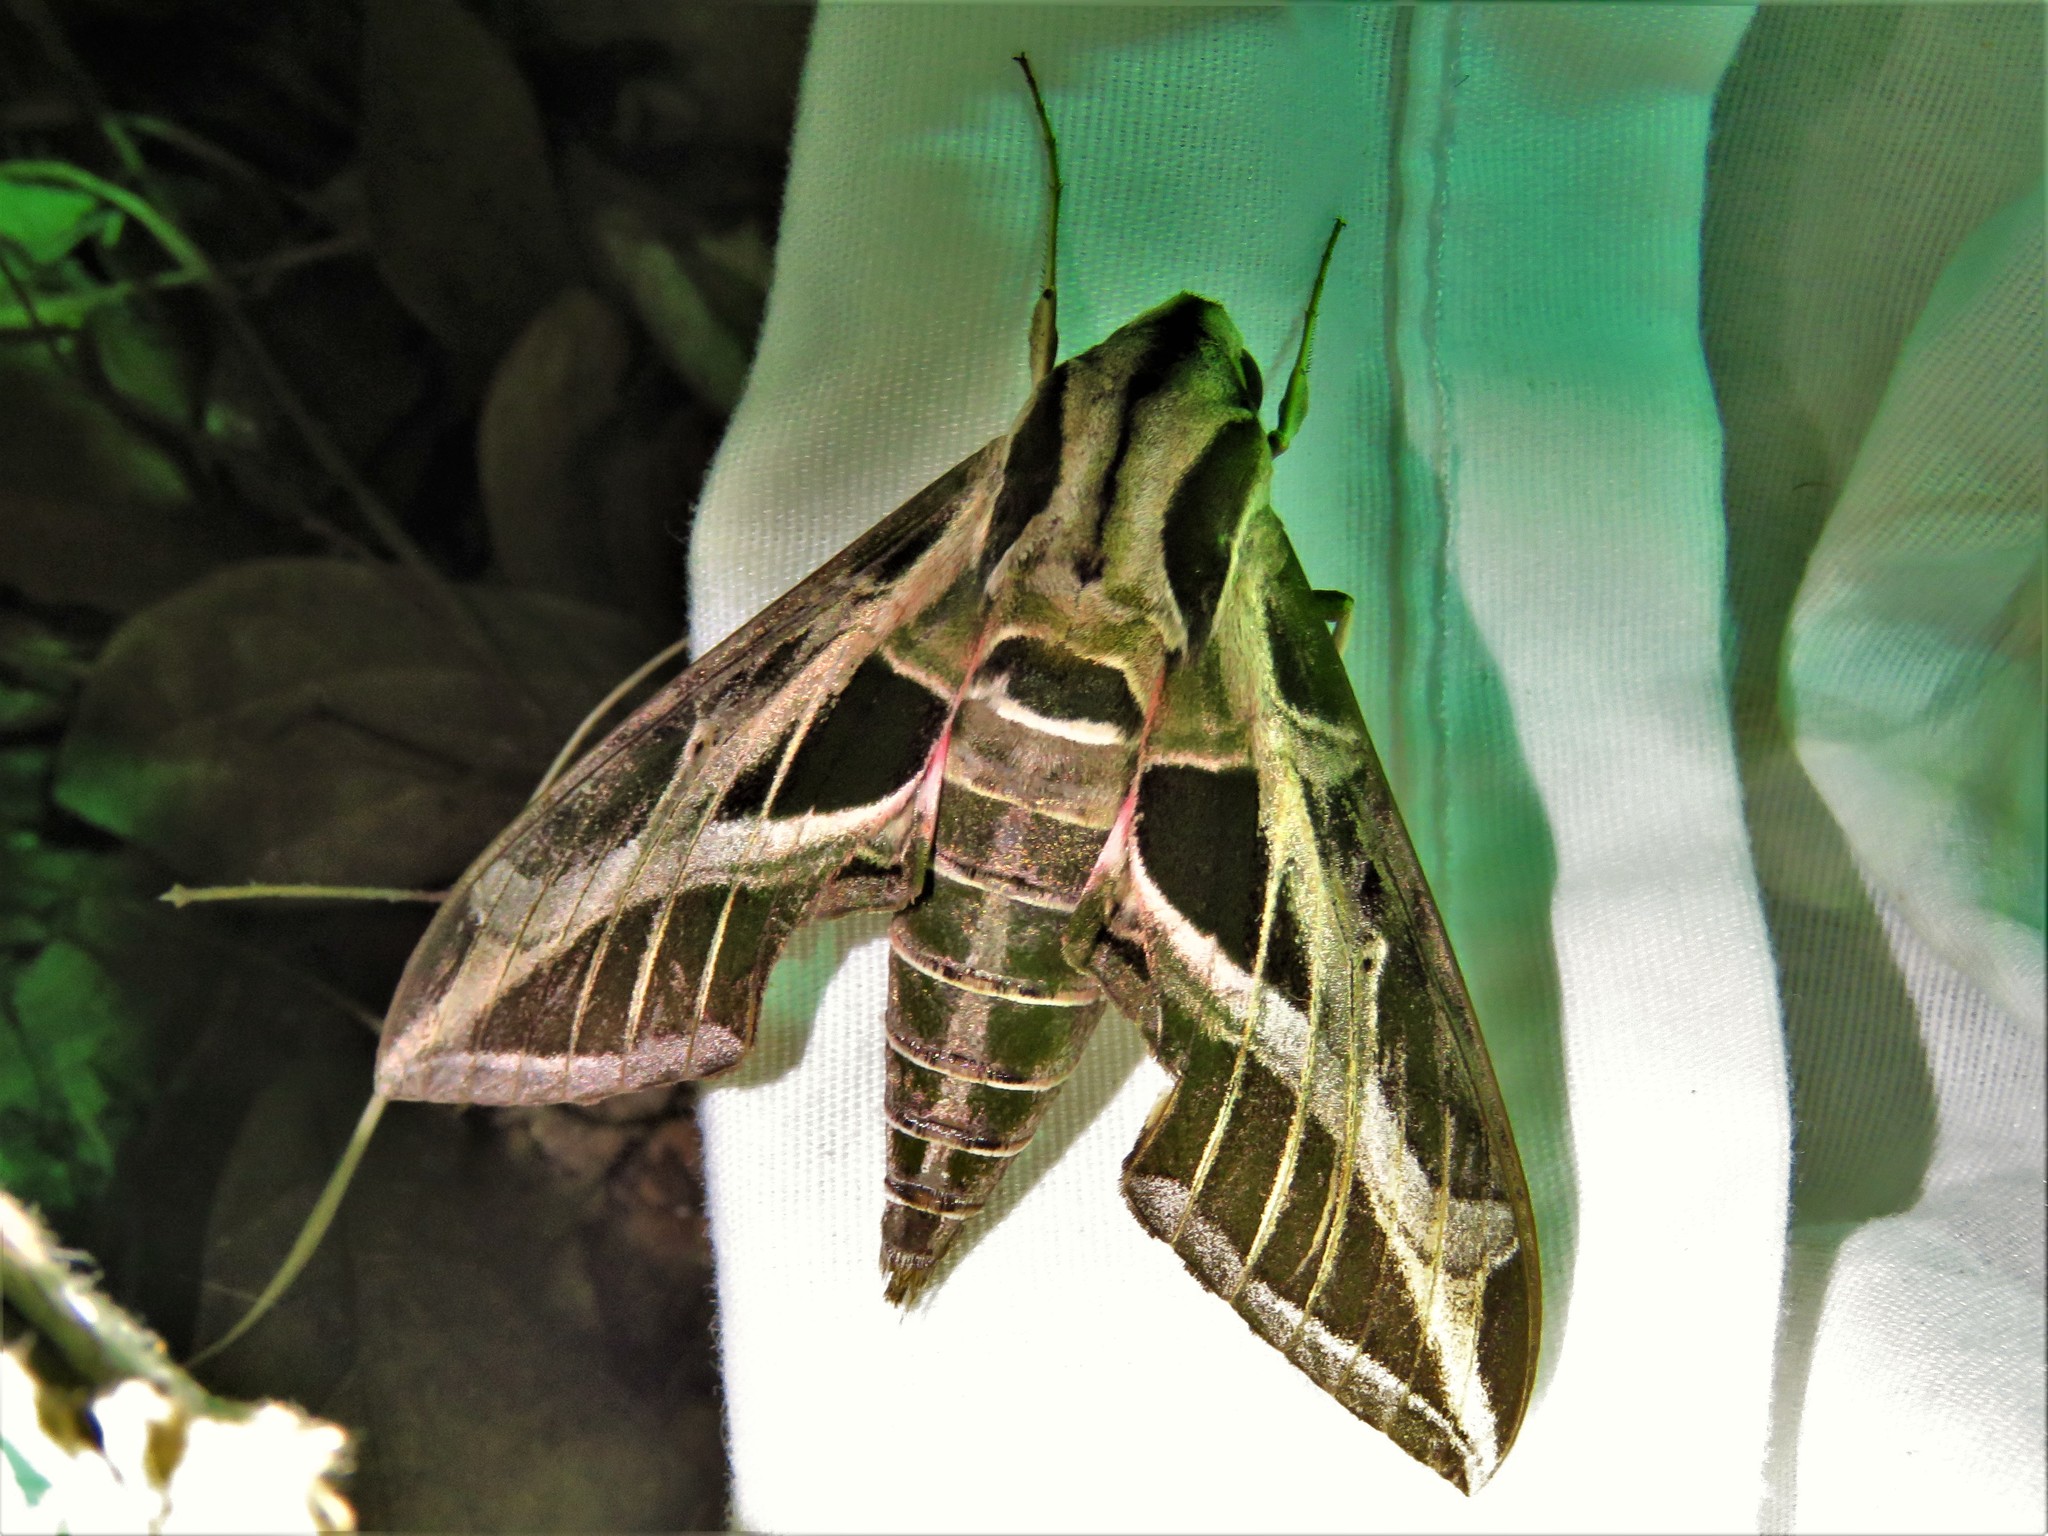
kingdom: Animalia
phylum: Arthropoda
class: Insecta
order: Lepidoptera
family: Sphingidae
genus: Eumorpha
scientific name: Eumorpha vitis
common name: Vine sphinx
